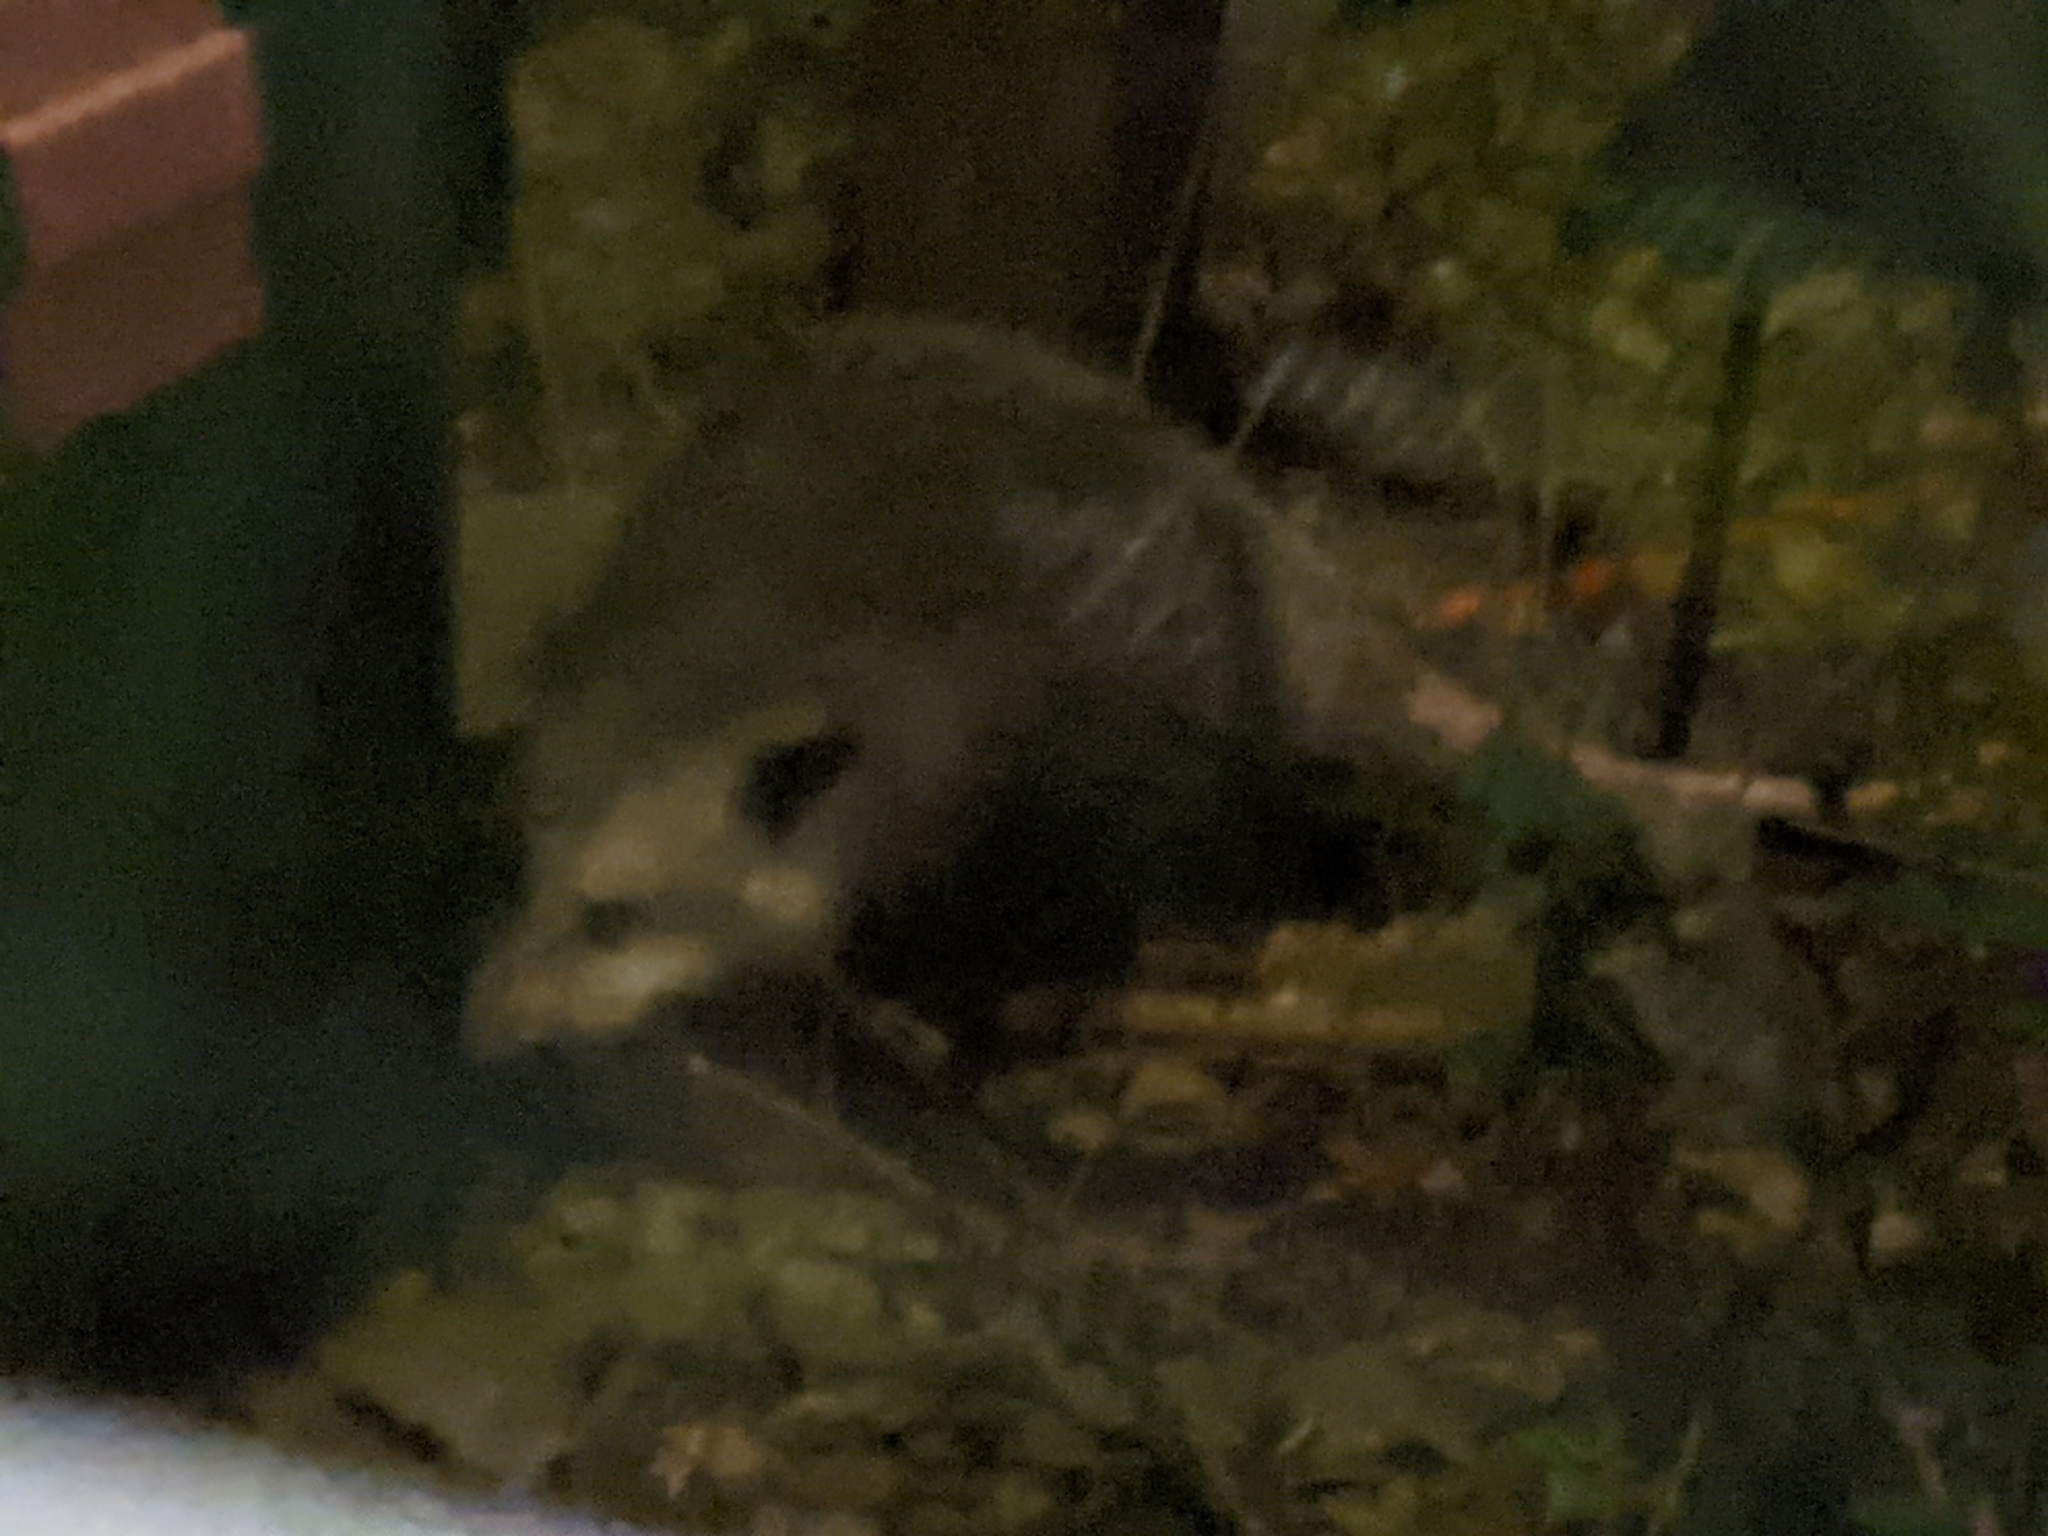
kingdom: Animalia
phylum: Chordata
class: Mammalia
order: Didelphimorphia
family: Didelphidae
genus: Didelphis
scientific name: Didelphis virginiana
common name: Virginia opossum
